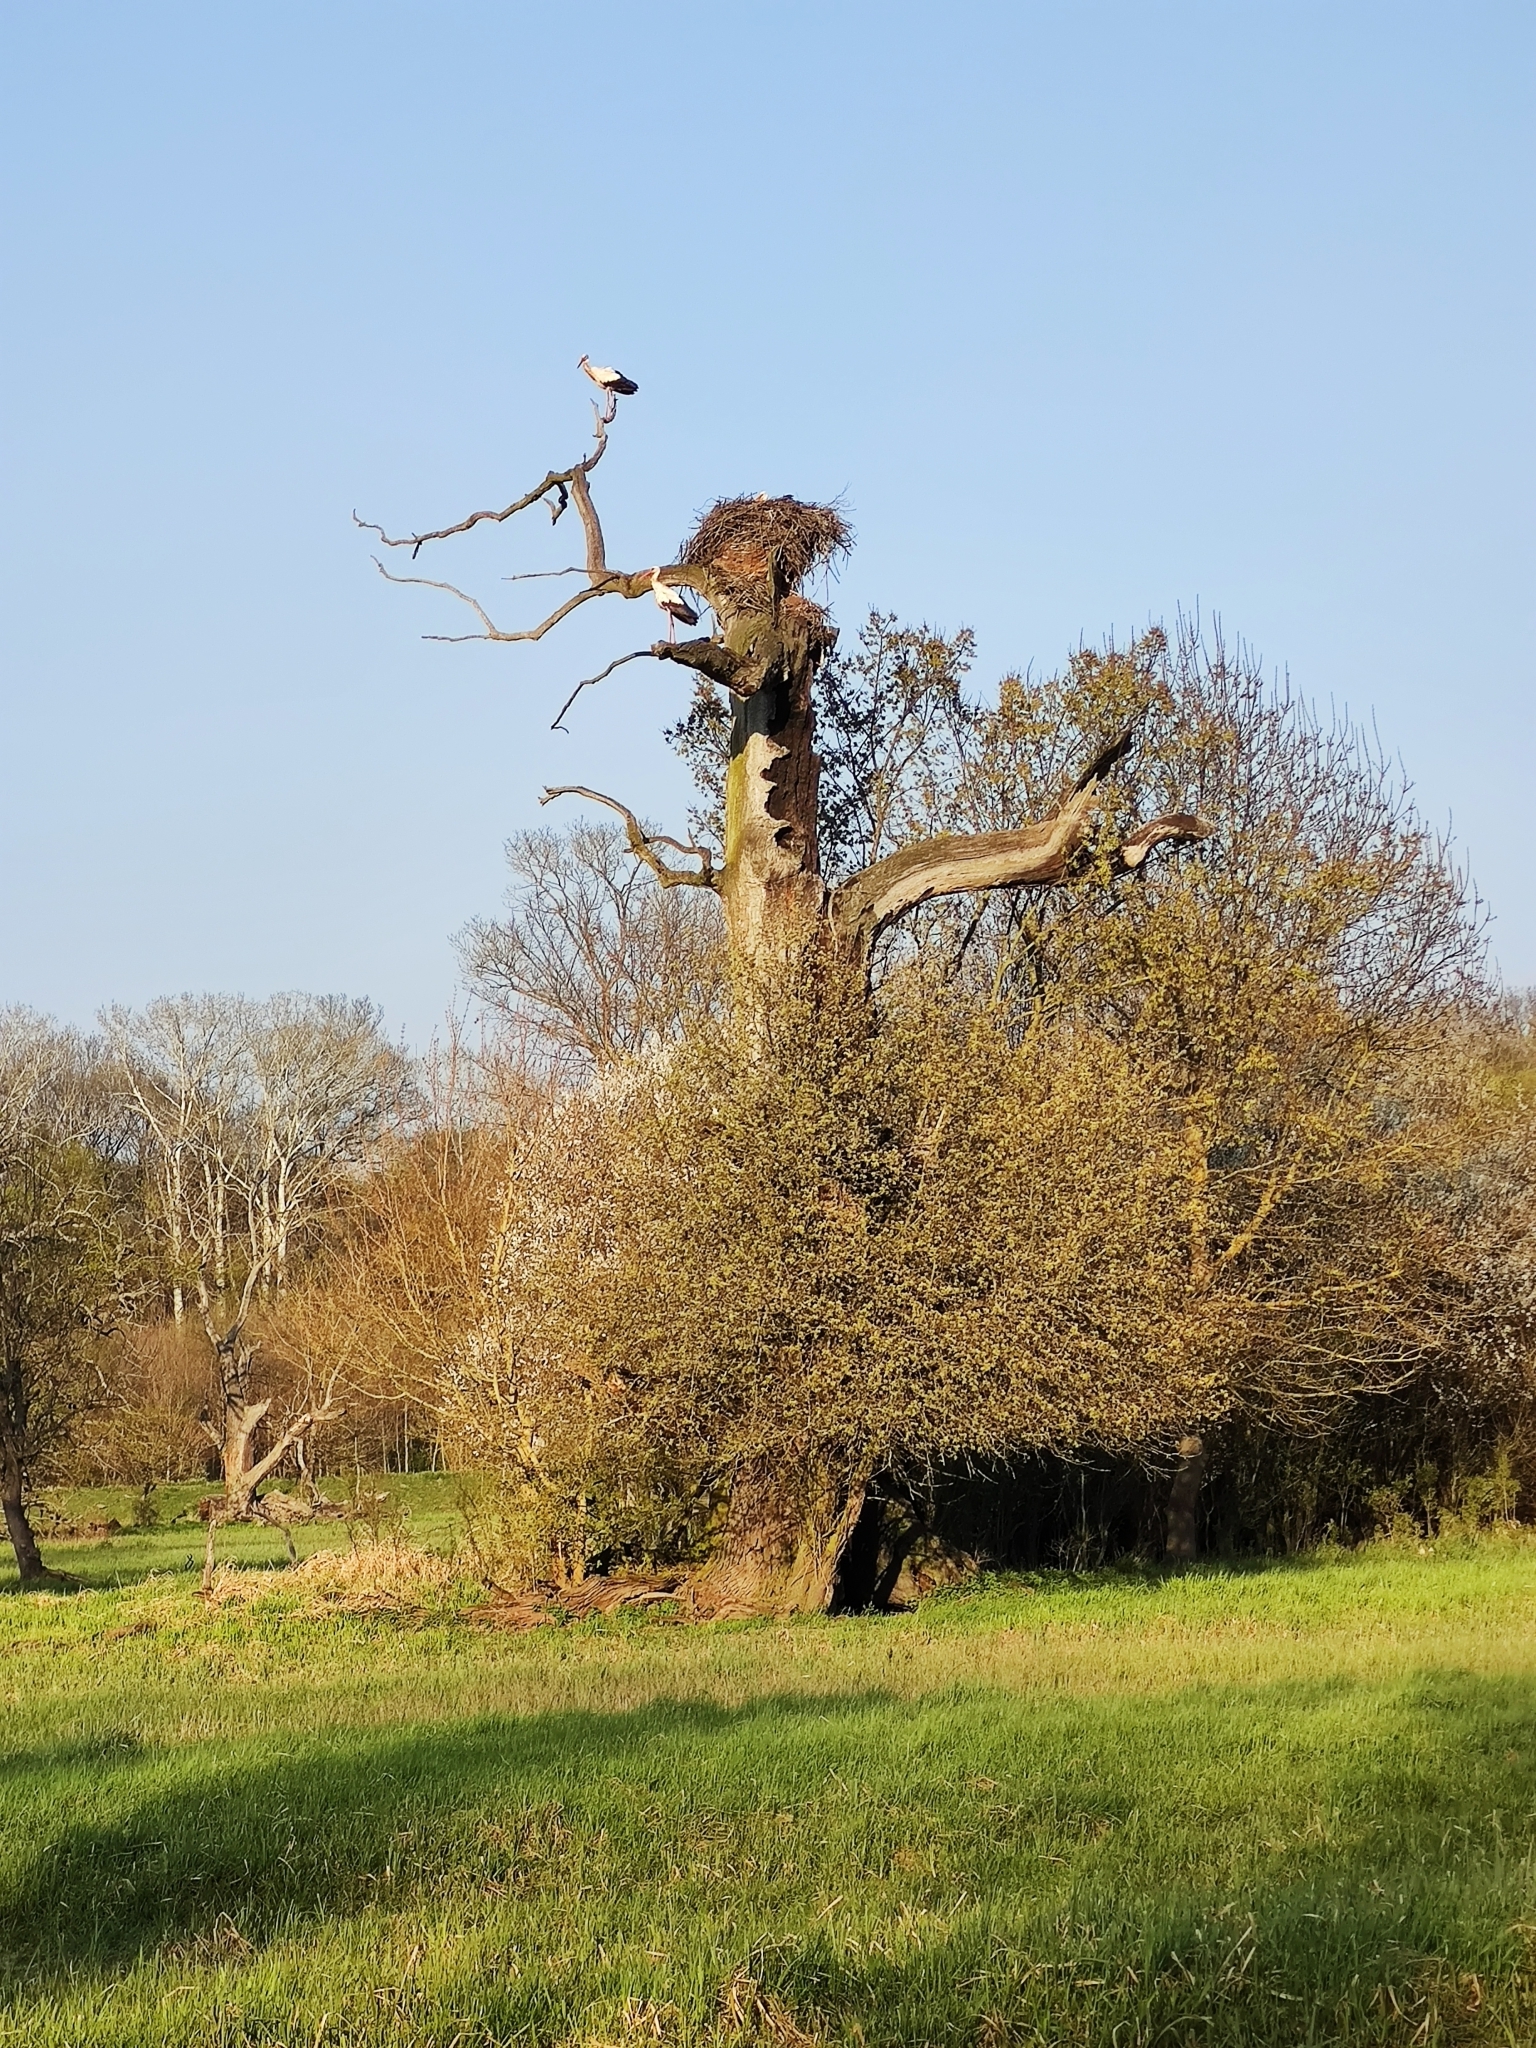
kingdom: Animalia
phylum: Chordata
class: Aves
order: Ciconiiformes
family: Ciconiidae
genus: Ciconia
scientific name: Ciconia ciconia
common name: White stork
